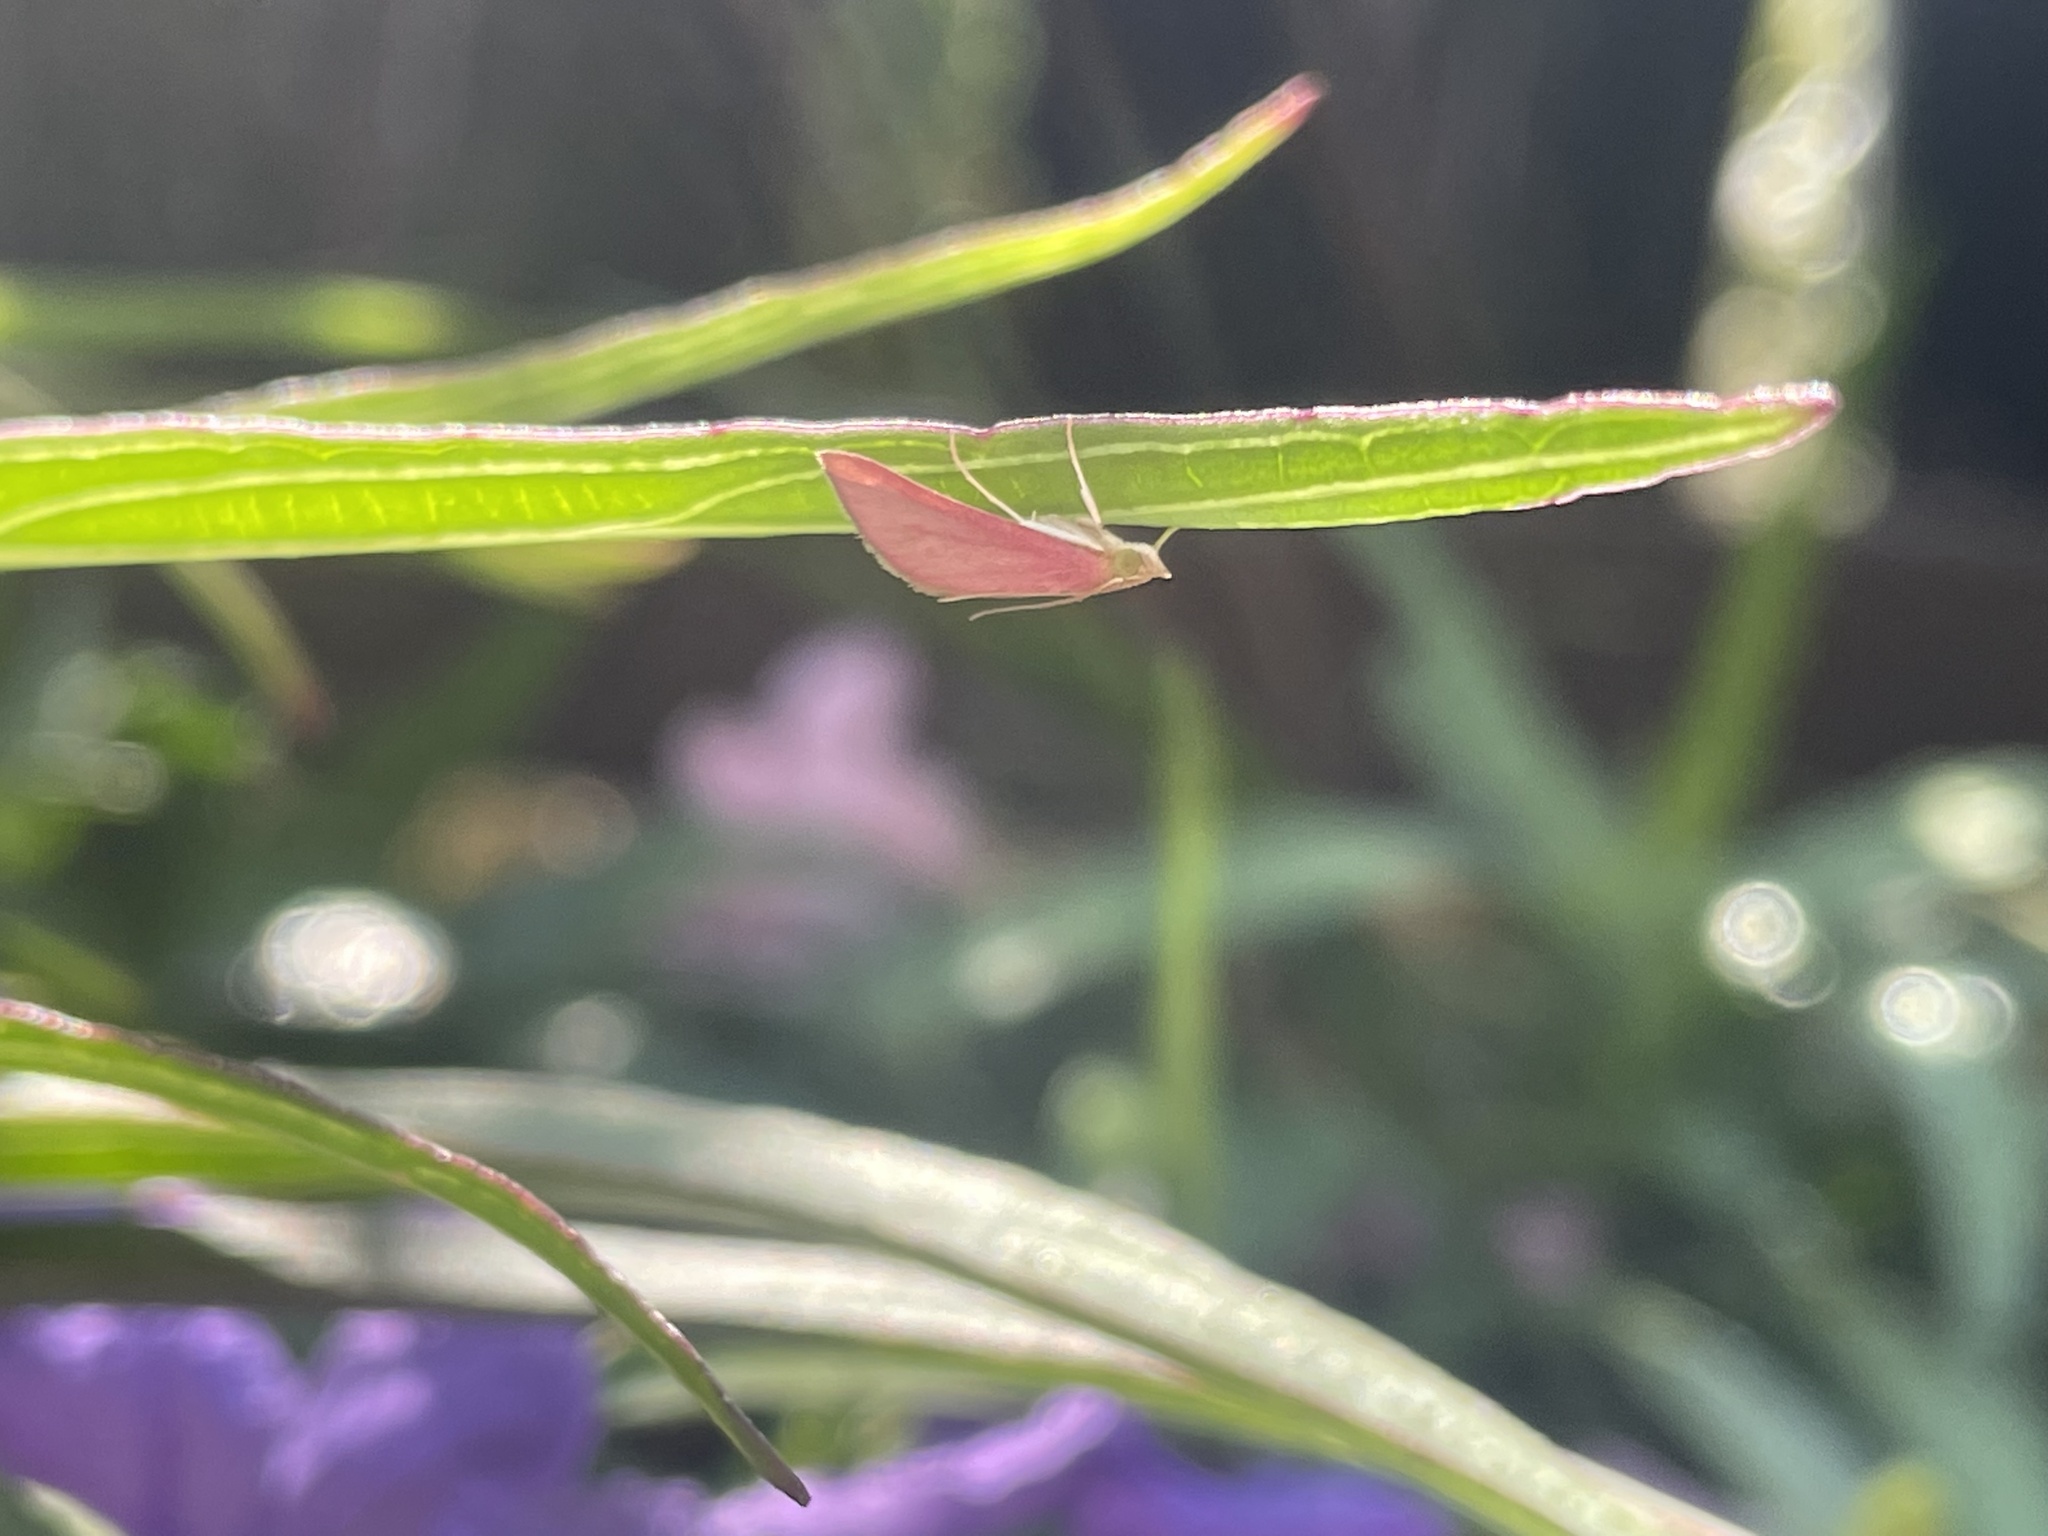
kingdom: Animalia
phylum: Arthropoda
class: Insecta
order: Lepidoptera
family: Crambidae
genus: Pyrausta
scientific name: Pyrausta inornatalis
